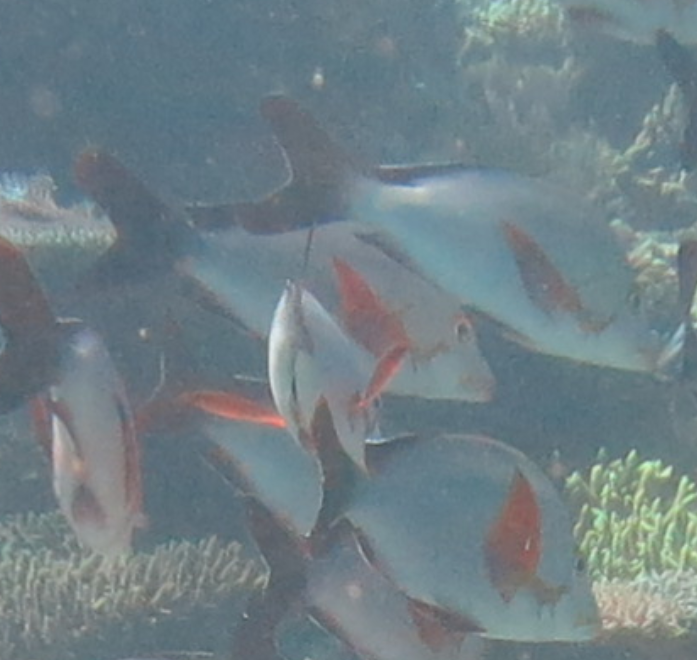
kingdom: Animalia
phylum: Chordata
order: Perciformes
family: Lutjanidae
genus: Lutjanus
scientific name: Lutjanus gibbus
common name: Humpback snapper
